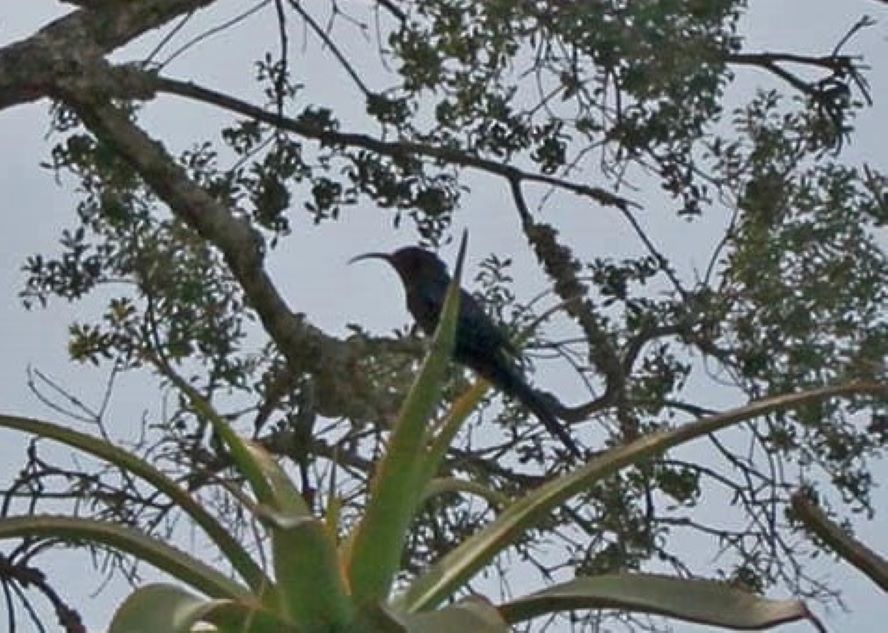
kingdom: Animalia
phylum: Chordata
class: Aves
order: Bucerotiformes
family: Phoeniculidae
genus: Rhinopomastus
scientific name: Rhinopomastus cyanomelas
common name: Common scimitarbill
